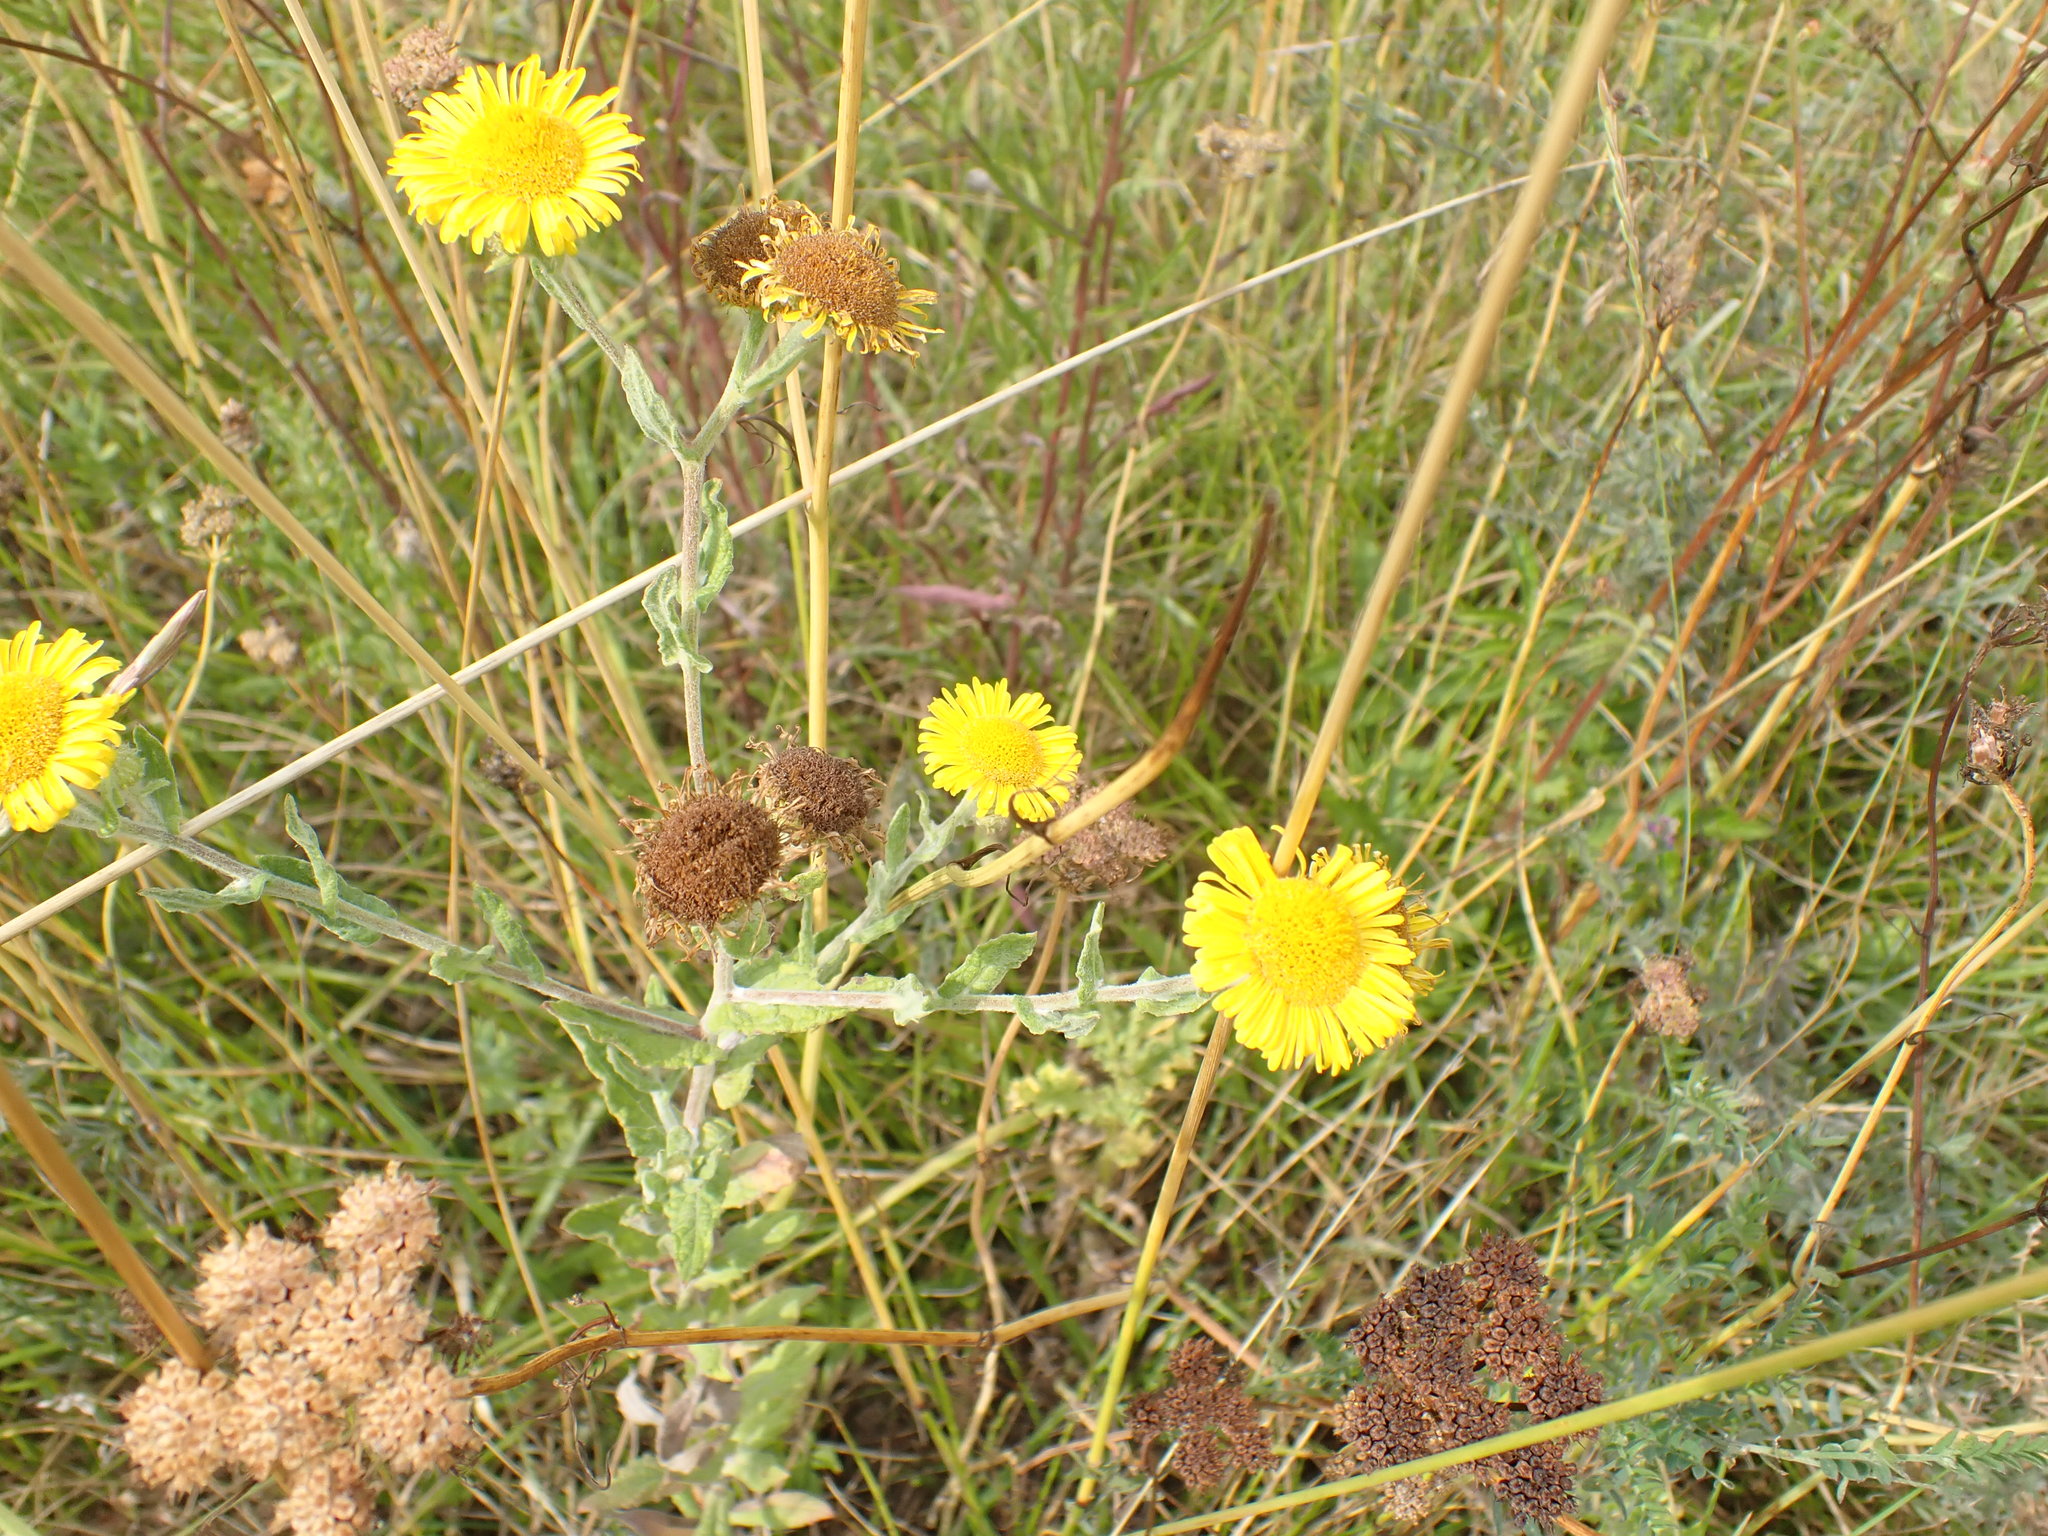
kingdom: Plantae
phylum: Tracheophyta
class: Magnoliopsida
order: Asterales
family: Asteraceae
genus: Pulicaria
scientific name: Pulicaria dysenterica
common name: Common fleabane
